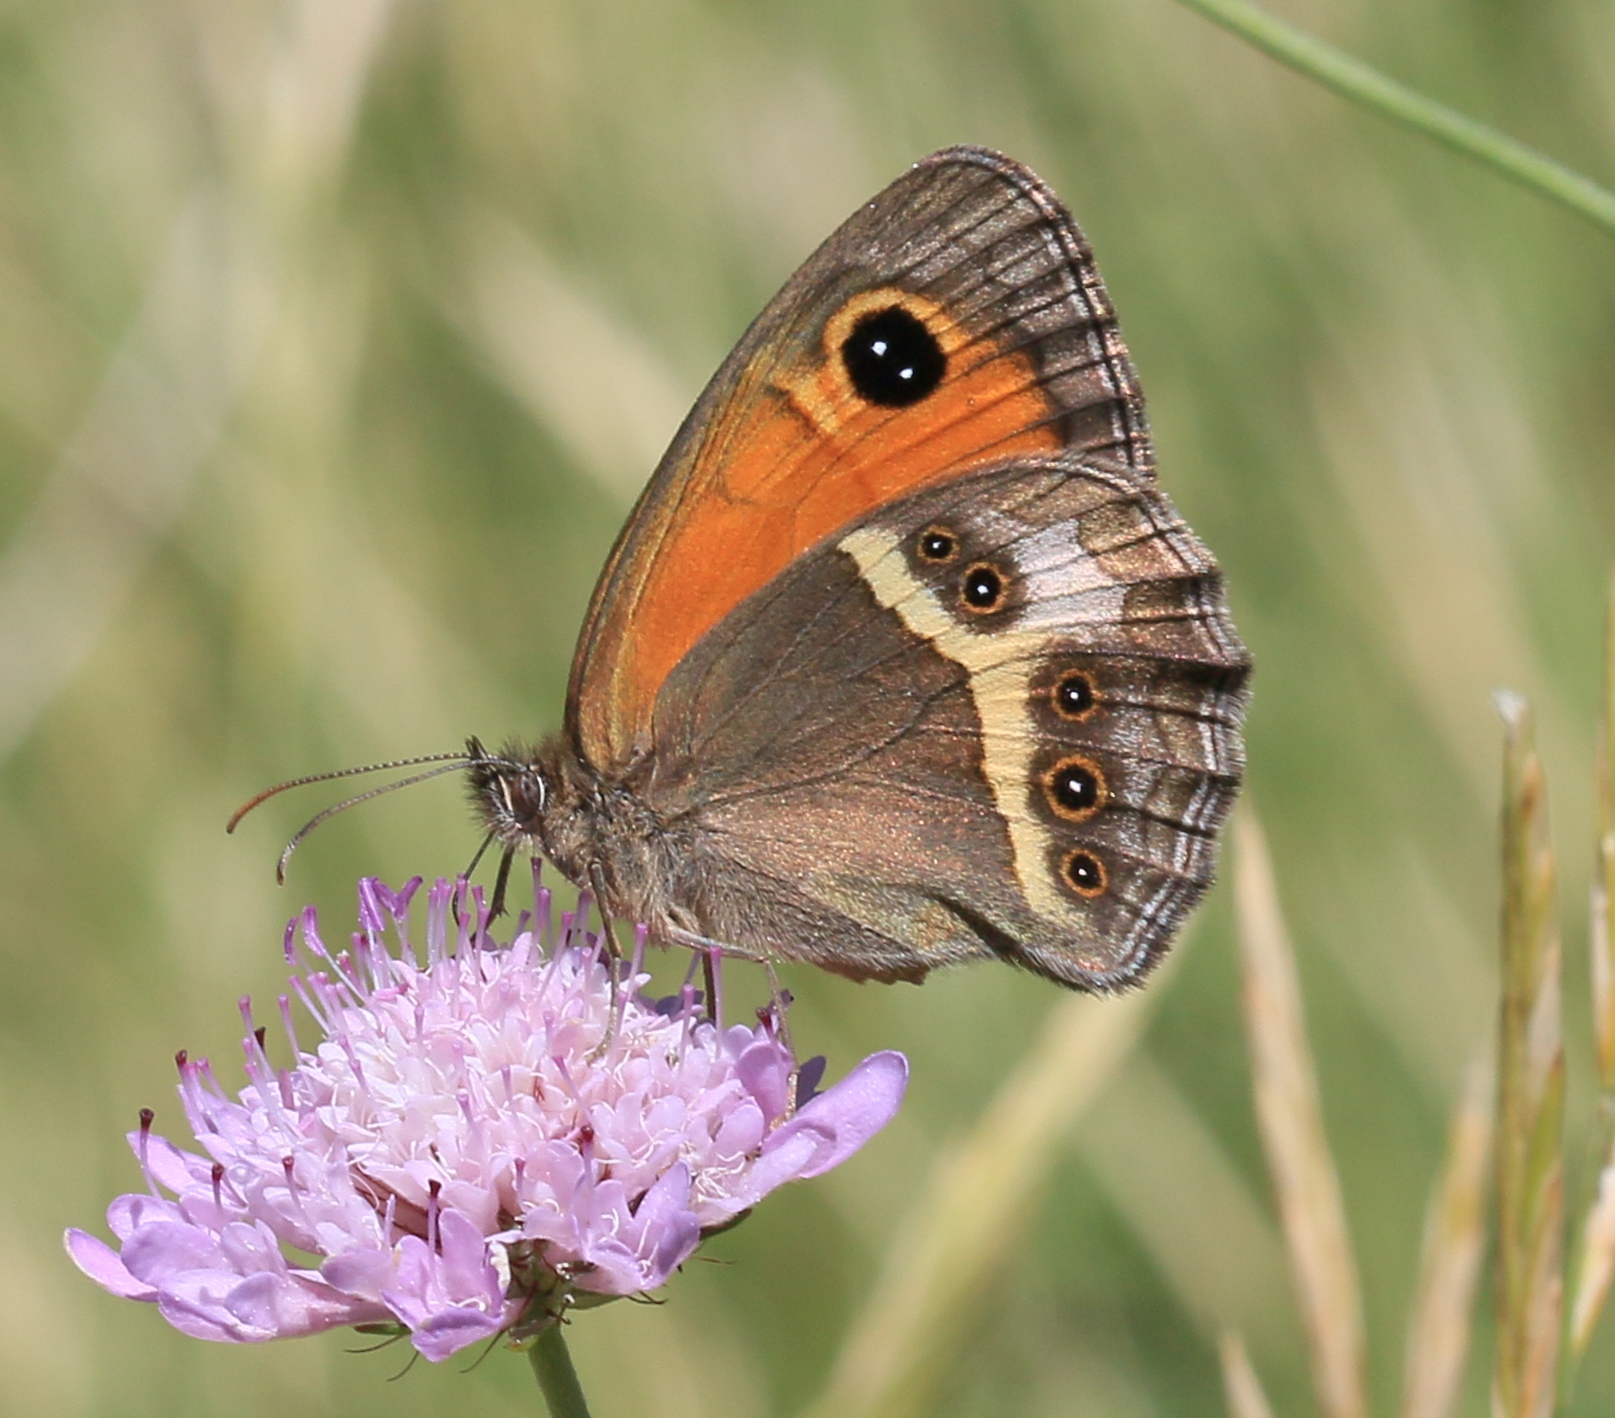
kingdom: Animalia
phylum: Arthropoda
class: Insecta
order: Lepidoptera
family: Nymphalidae
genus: Pyronia
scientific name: Pyronia bathseba
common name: Spanish gatekeeper
